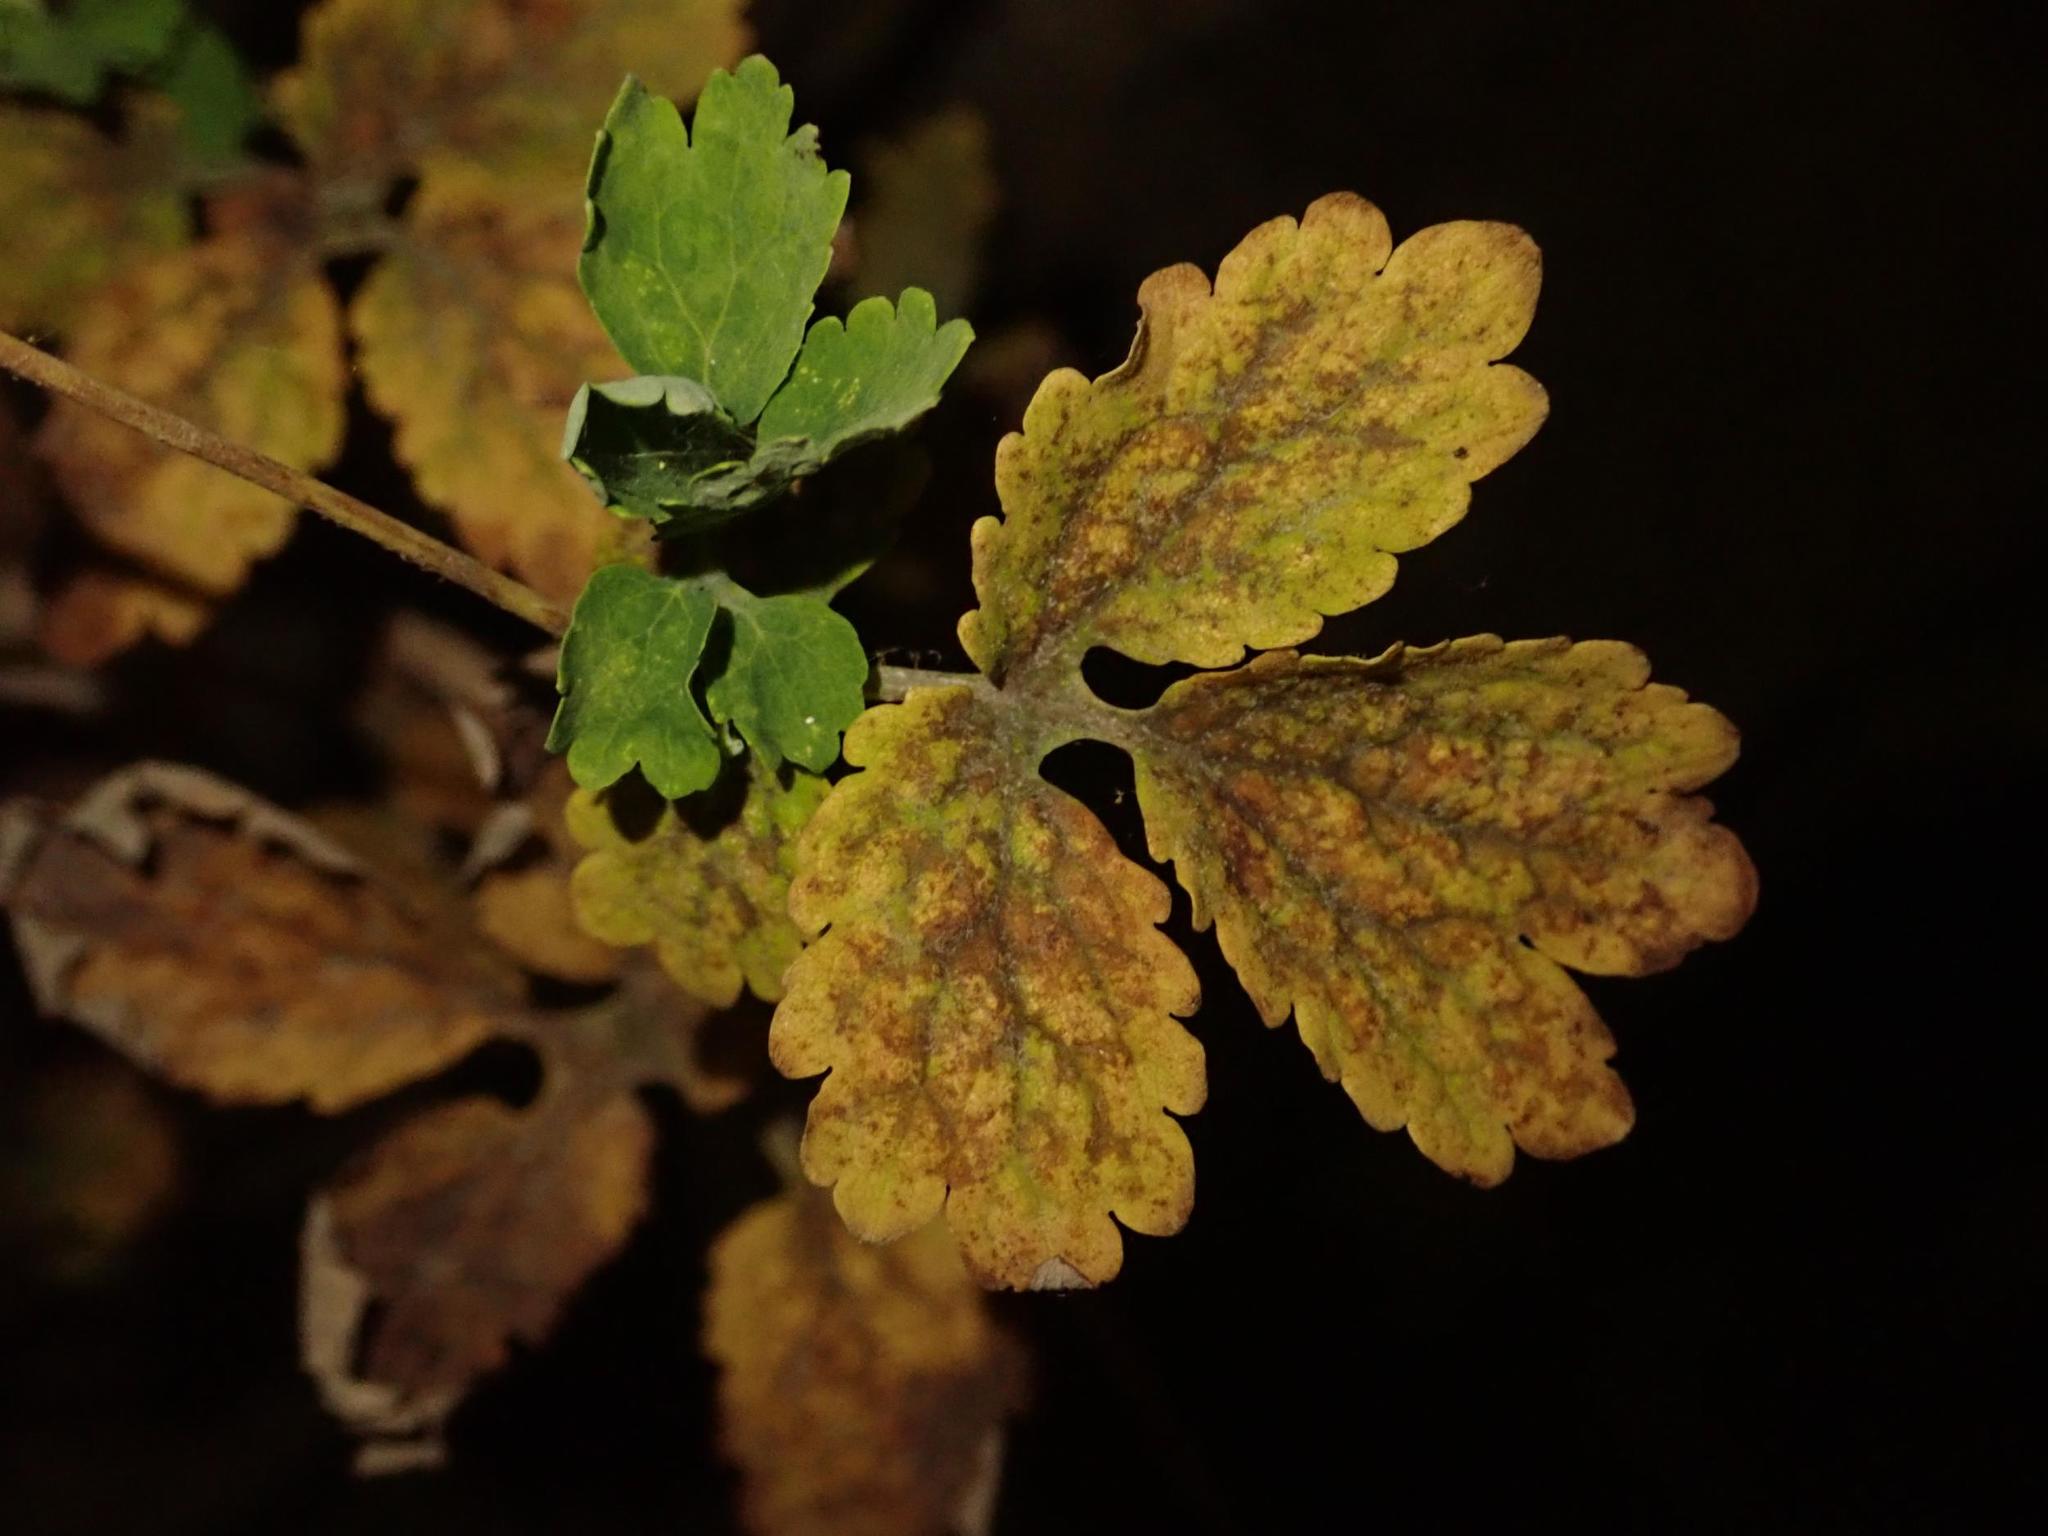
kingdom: Plantae
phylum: Tracheophyta
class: Magnoliopsida
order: Ranunculales
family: Papaveraceae
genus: Chelidonium
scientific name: Chelidonium majus
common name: Greater celandine
